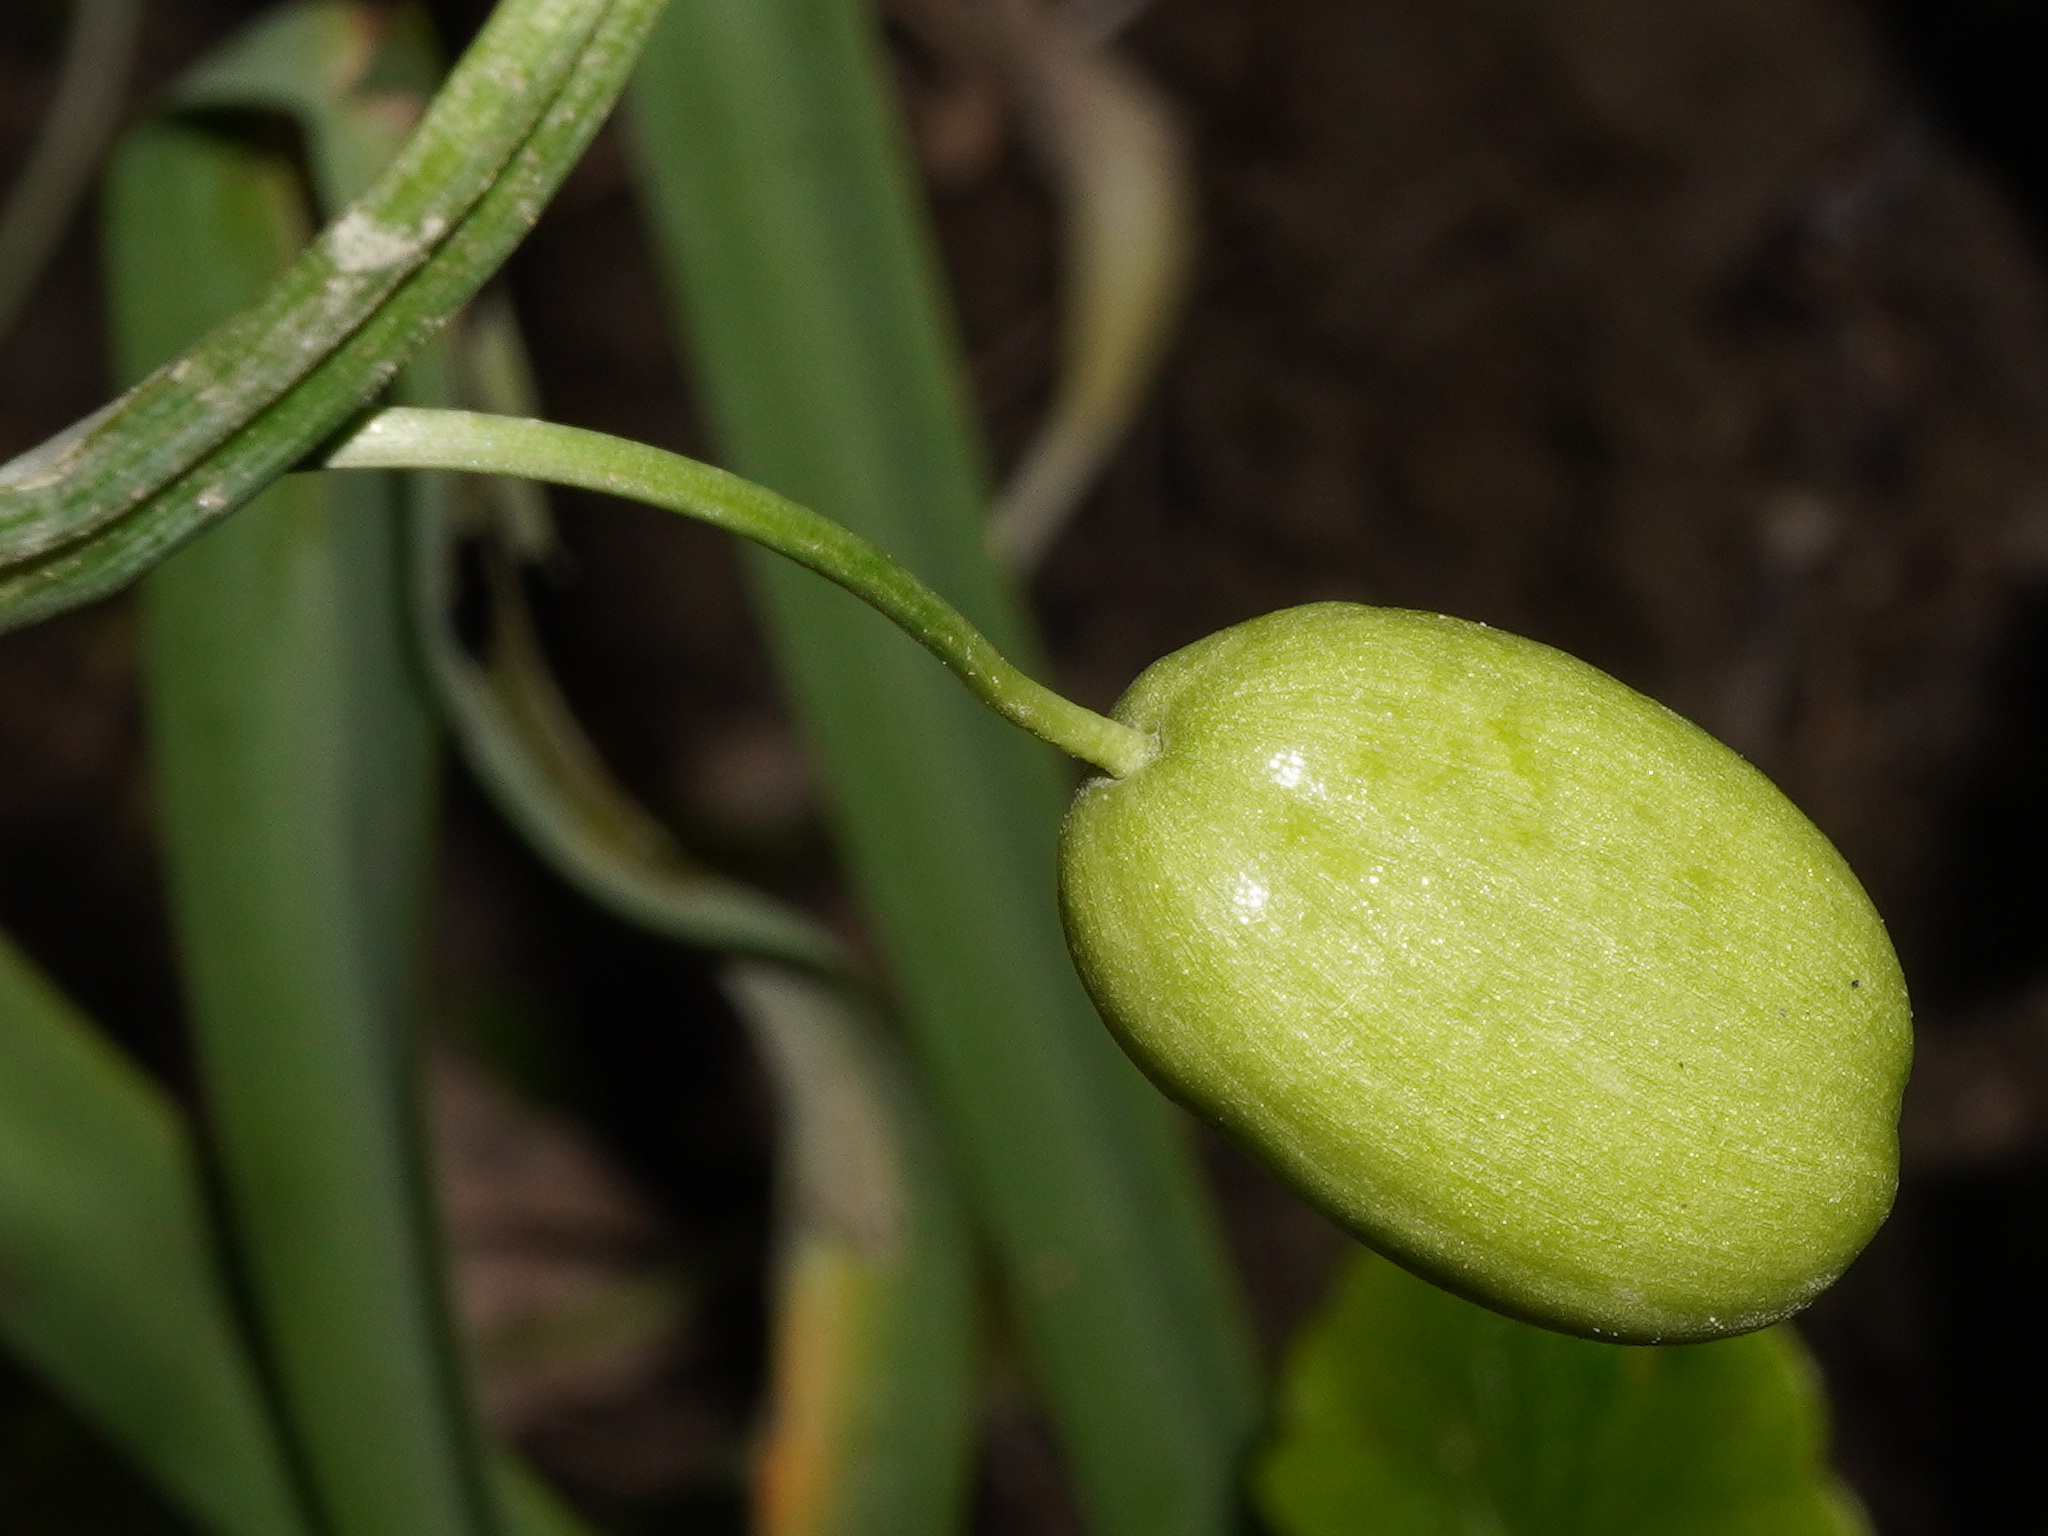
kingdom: Plantae
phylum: Tracheophyta
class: Liliopsida
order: Asparagales
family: Amaryllidaceae
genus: Galanthus
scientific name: Galanthus nivalis
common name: Snowdrop
